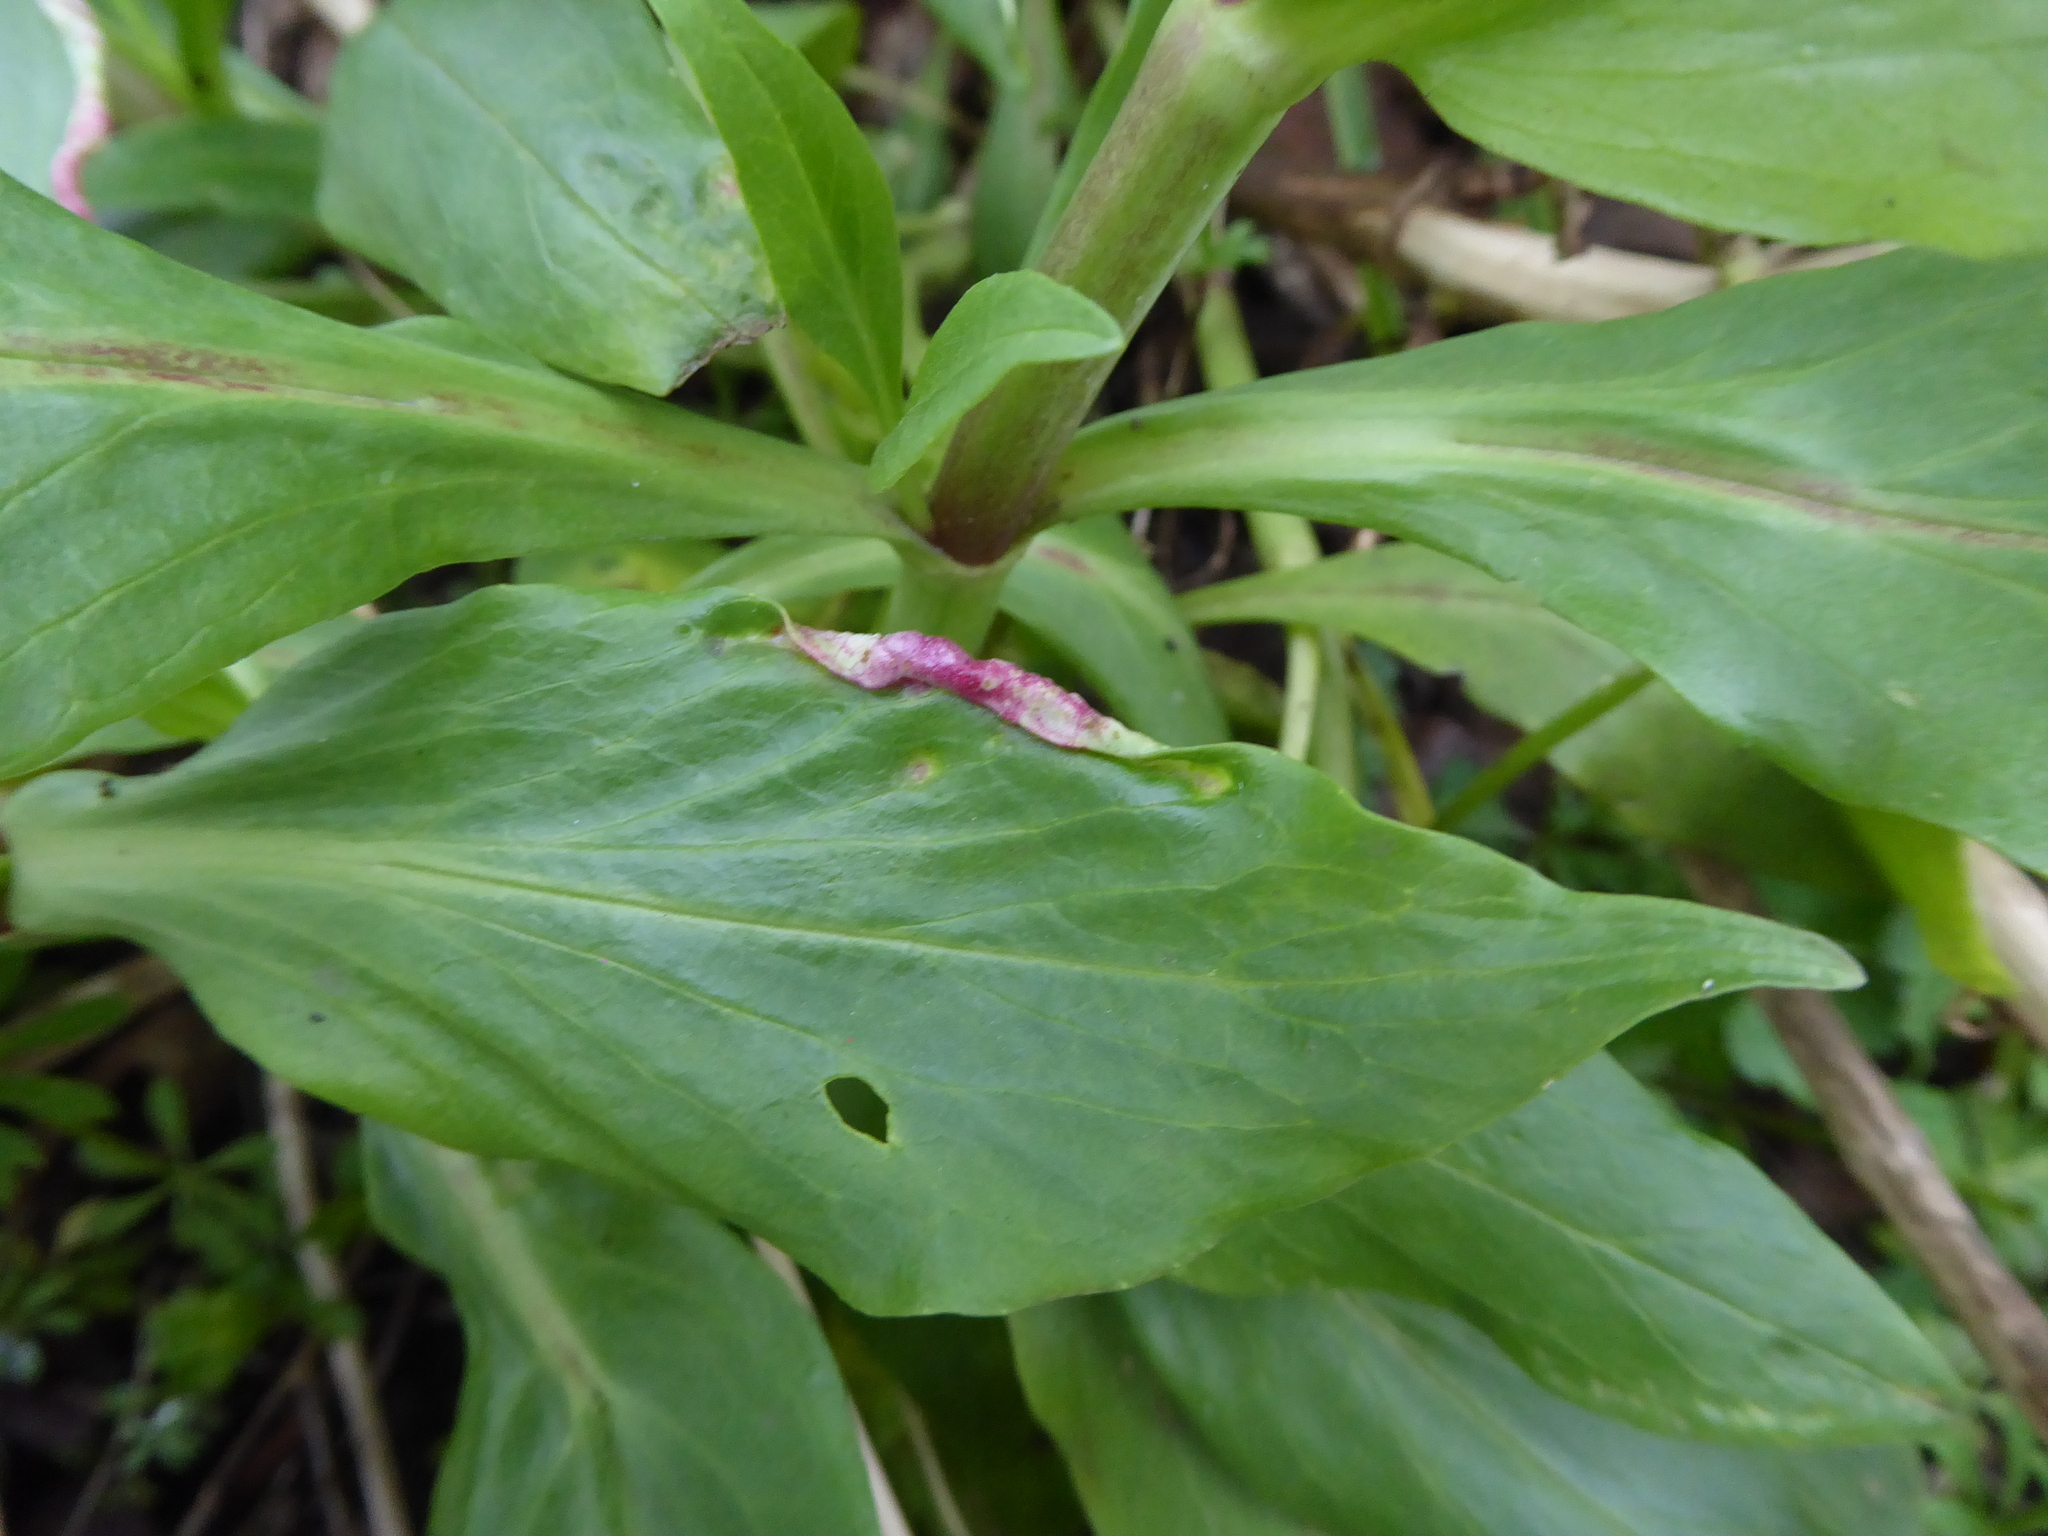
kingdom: Animalia
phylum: Arthropoda
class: Insecta
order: Hemiptera
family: Triozidae
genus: Trioza
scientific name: Trioza centranthi
